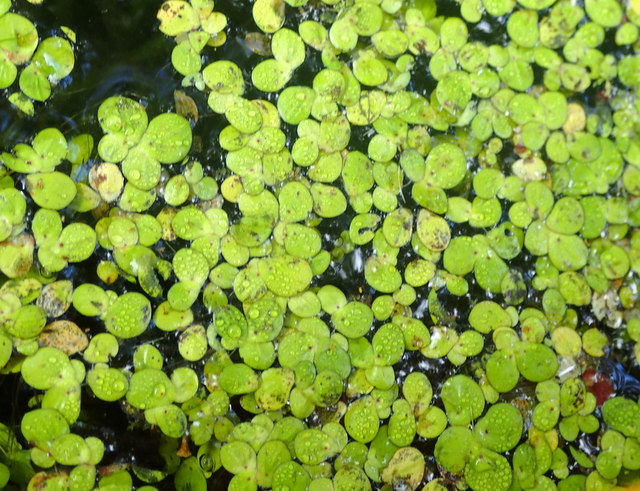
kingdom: Plantae
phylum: Tracheophyta
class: Liliopsida
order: Alismatales
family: Araceae
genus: Spirodela
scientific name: Spirodela polyrhiza
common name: Great duckweed
